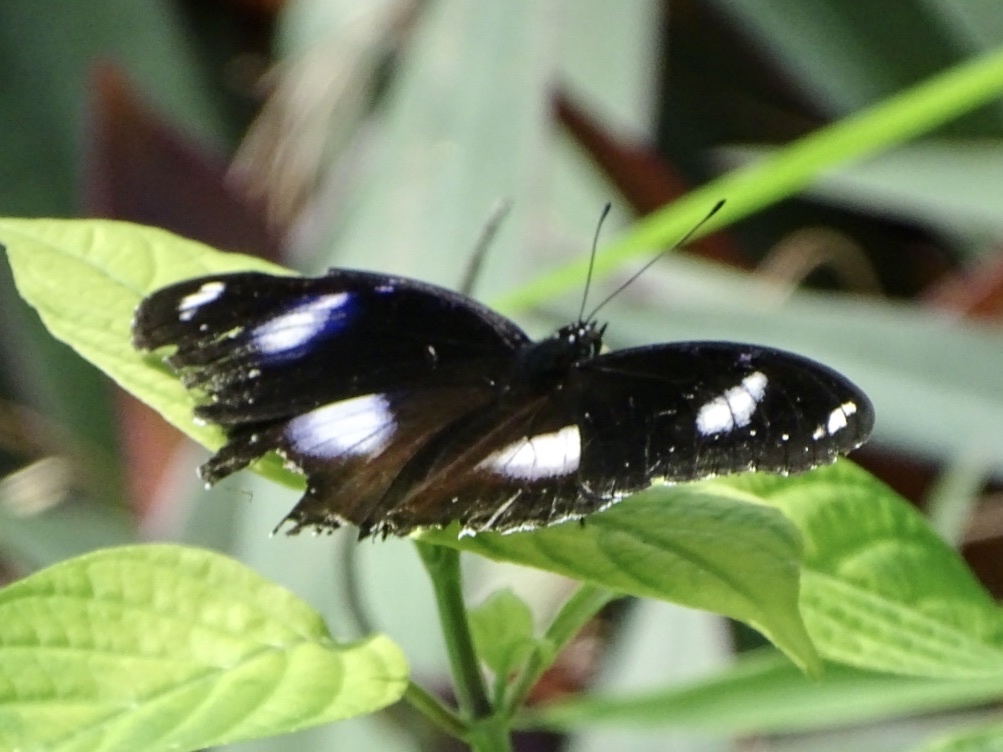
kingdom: Animalia
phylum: Arthropoda
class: Insecta
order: Lepidoptera
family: Nymphalidae
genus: Hypolimnas
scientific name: Hypolimnas bolina
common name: Great eggfly
